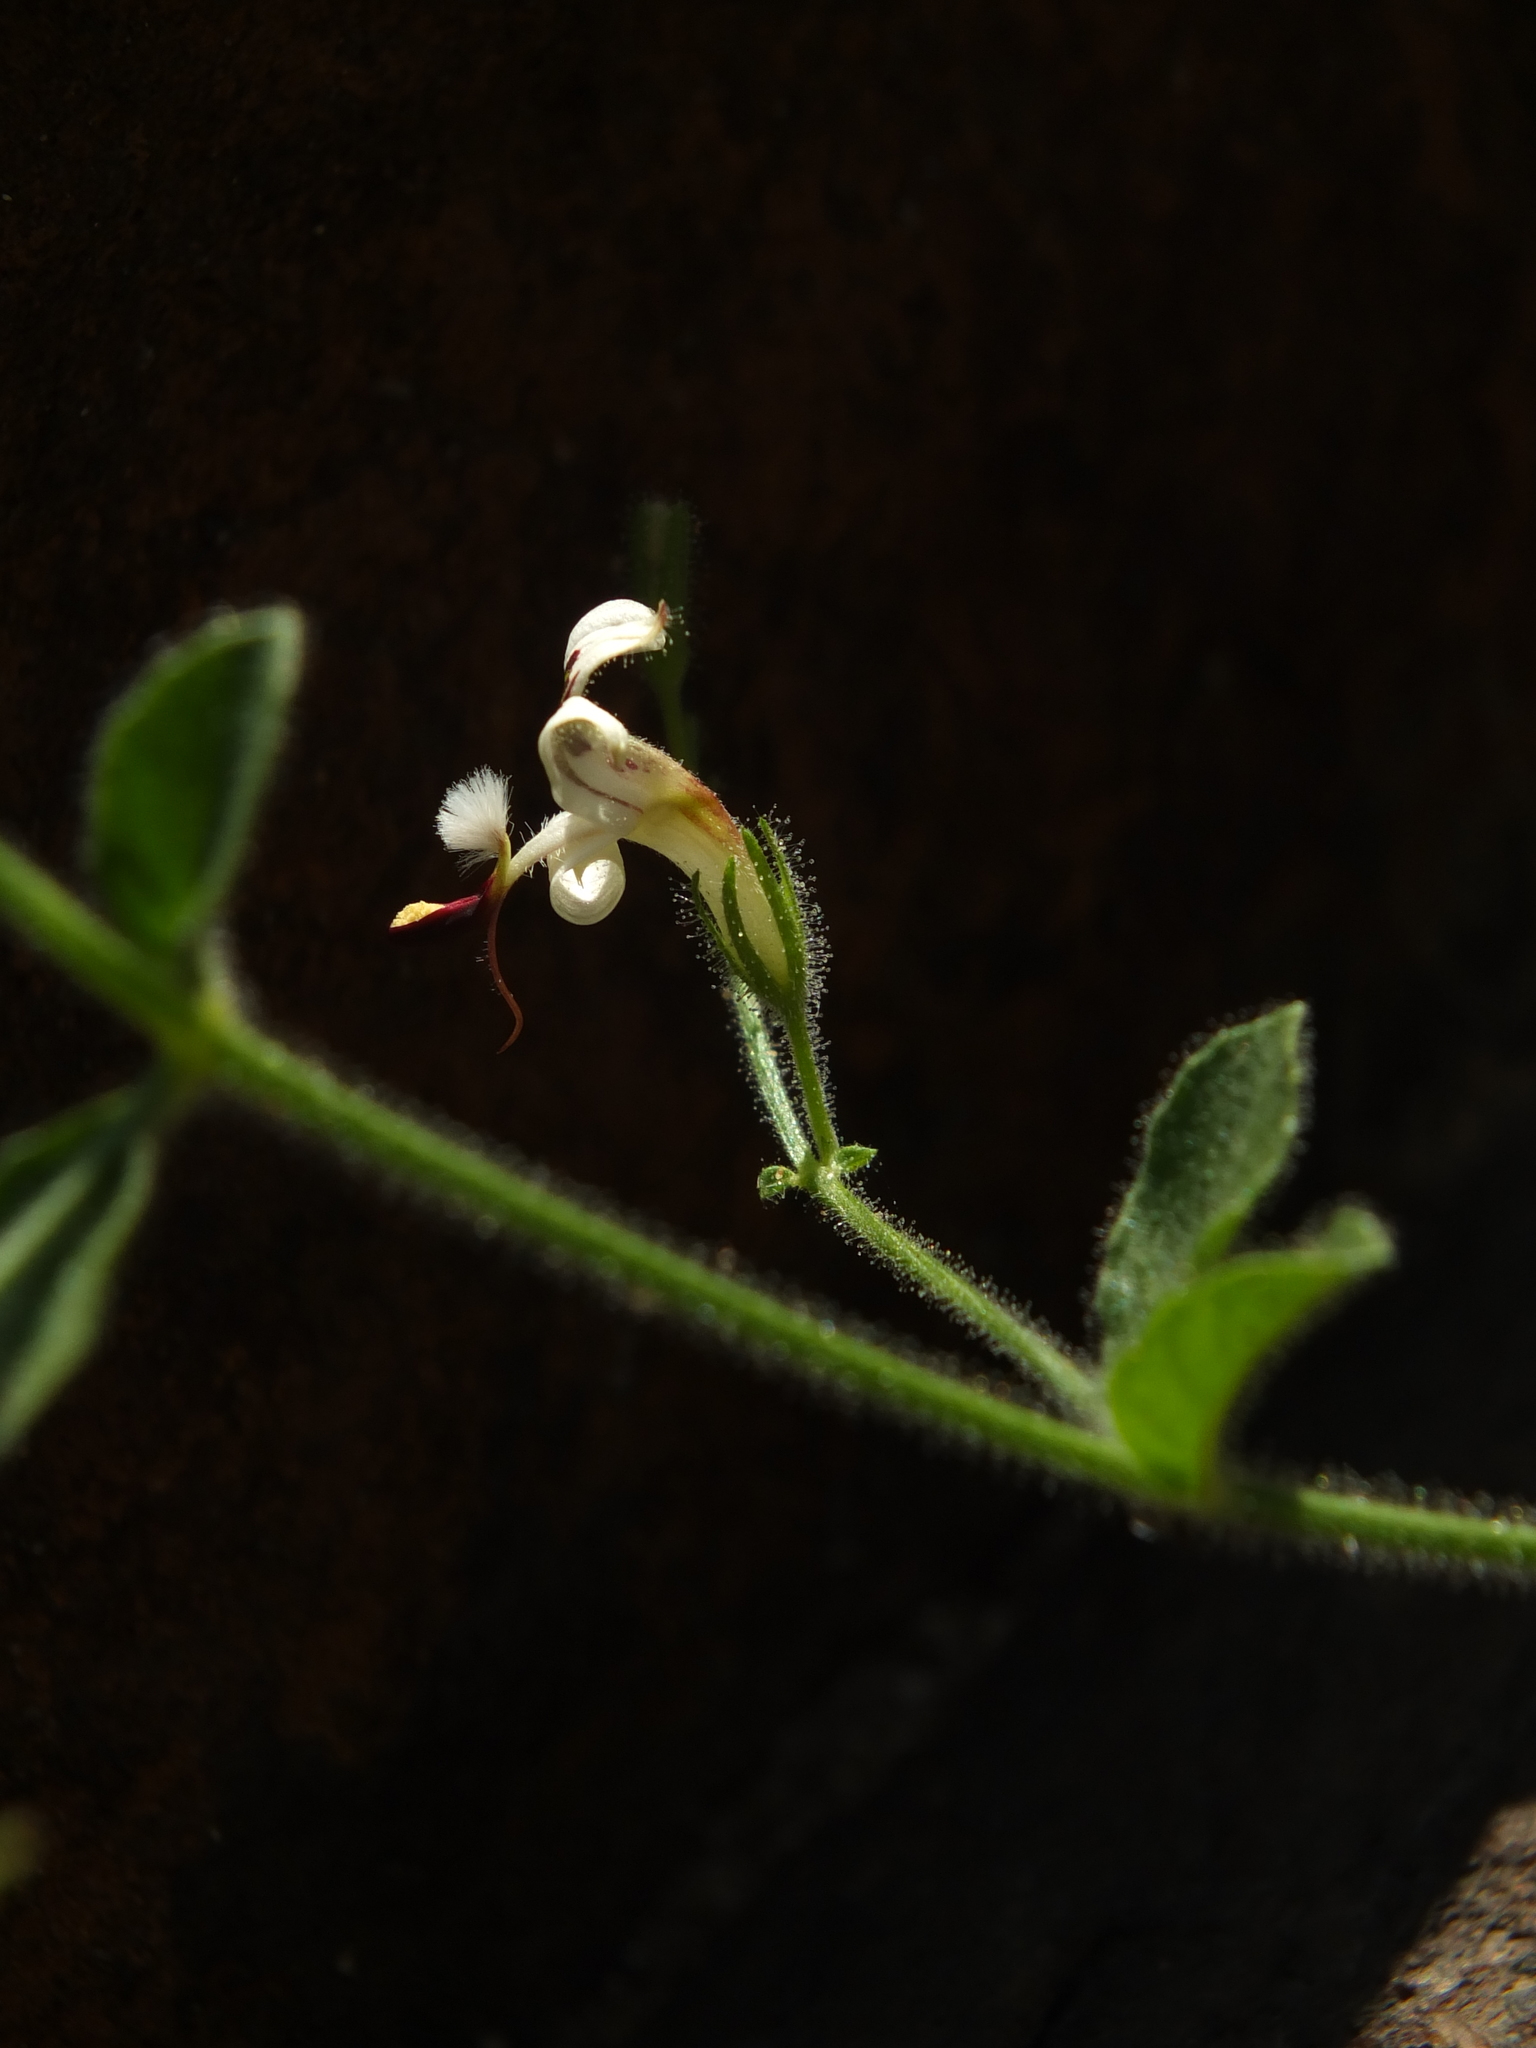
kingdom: Plantae
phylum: Tracheophyta
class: Magnoliopsida
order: Lamiales
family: Acanthaceae
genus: Andrographis
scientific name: Andrographis rothii
